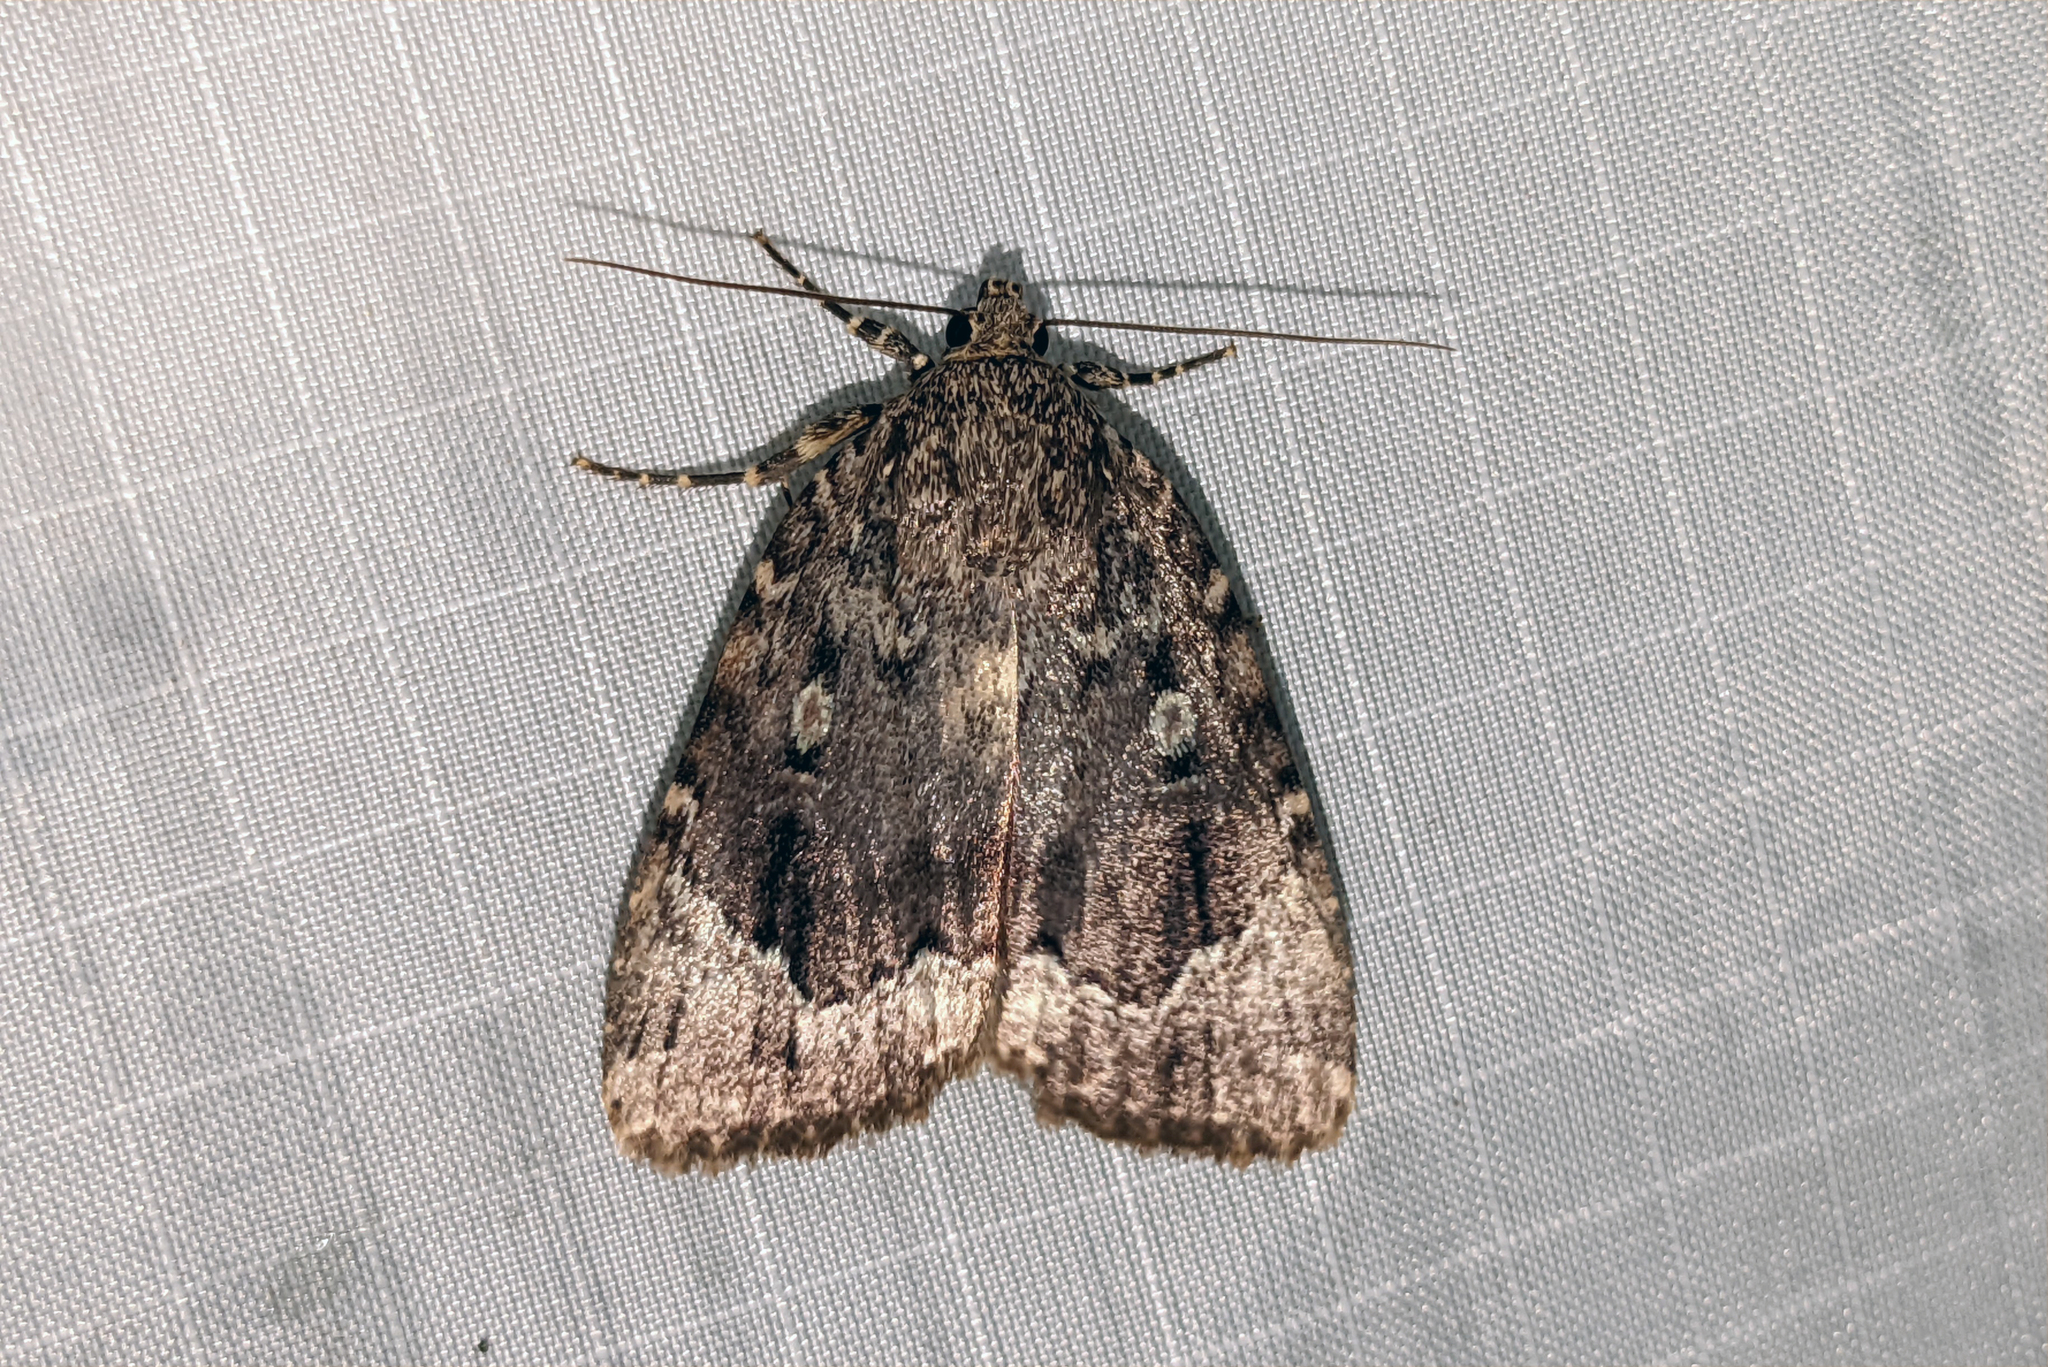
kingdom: Animalia
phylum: Arthropoda
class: Insecta
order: Lepidoptera
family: Noctuidae
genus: Amphipyra
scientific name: Amphipyra pyramidoides
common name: American copper underwing
